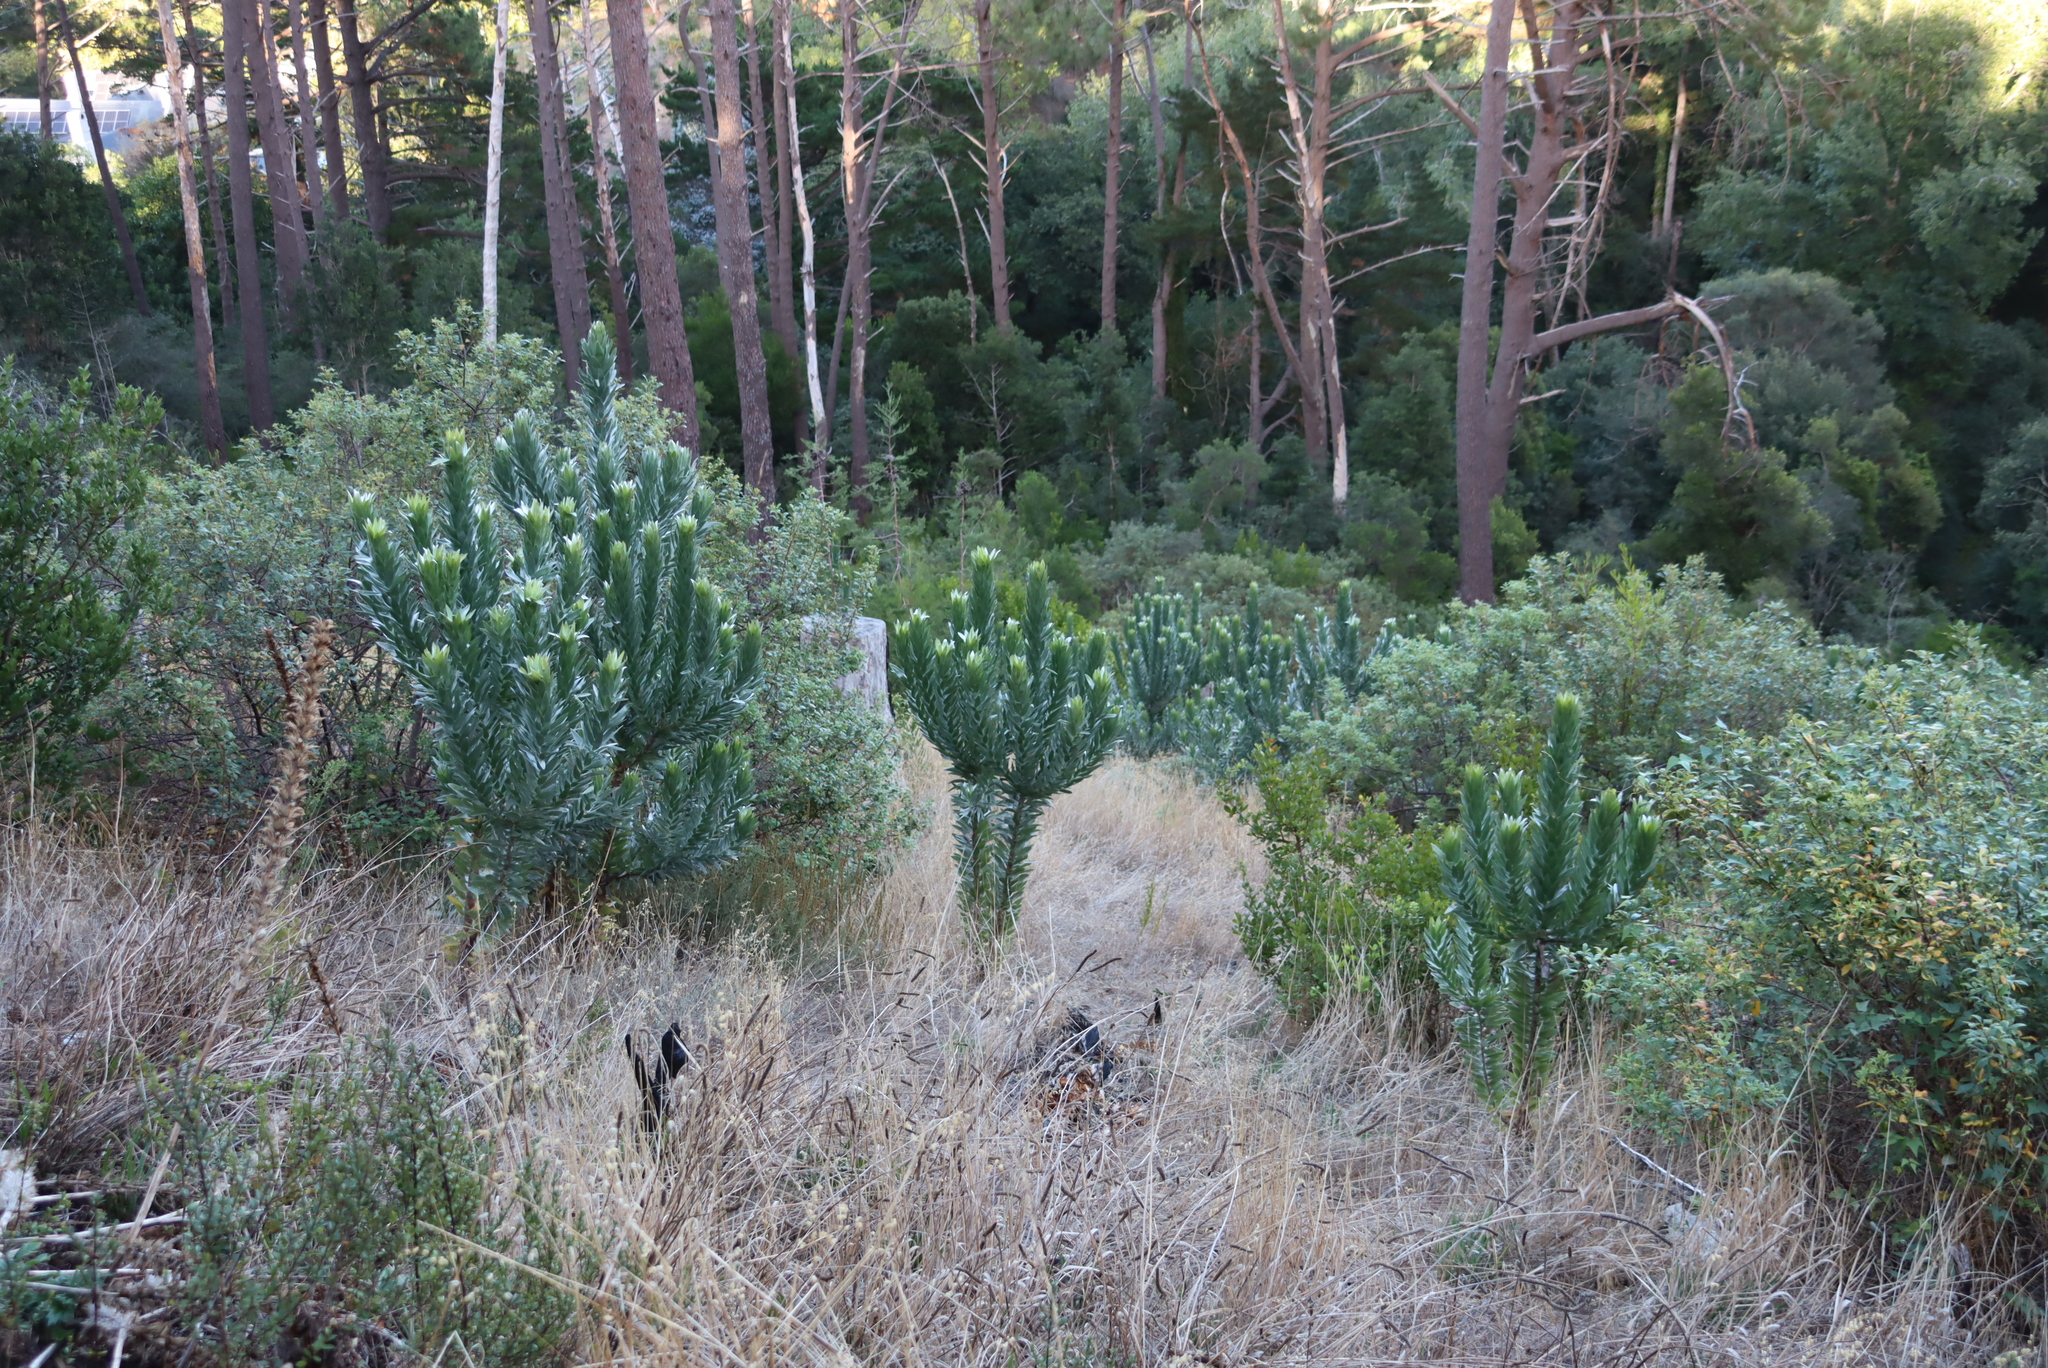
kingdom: Plantae
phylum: Tracheophyta
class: Magnoliopsida
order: Proteales
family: Proteaceae
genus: Leucadendron
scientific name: Leucadendron argenteum
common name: Cape silver tree
